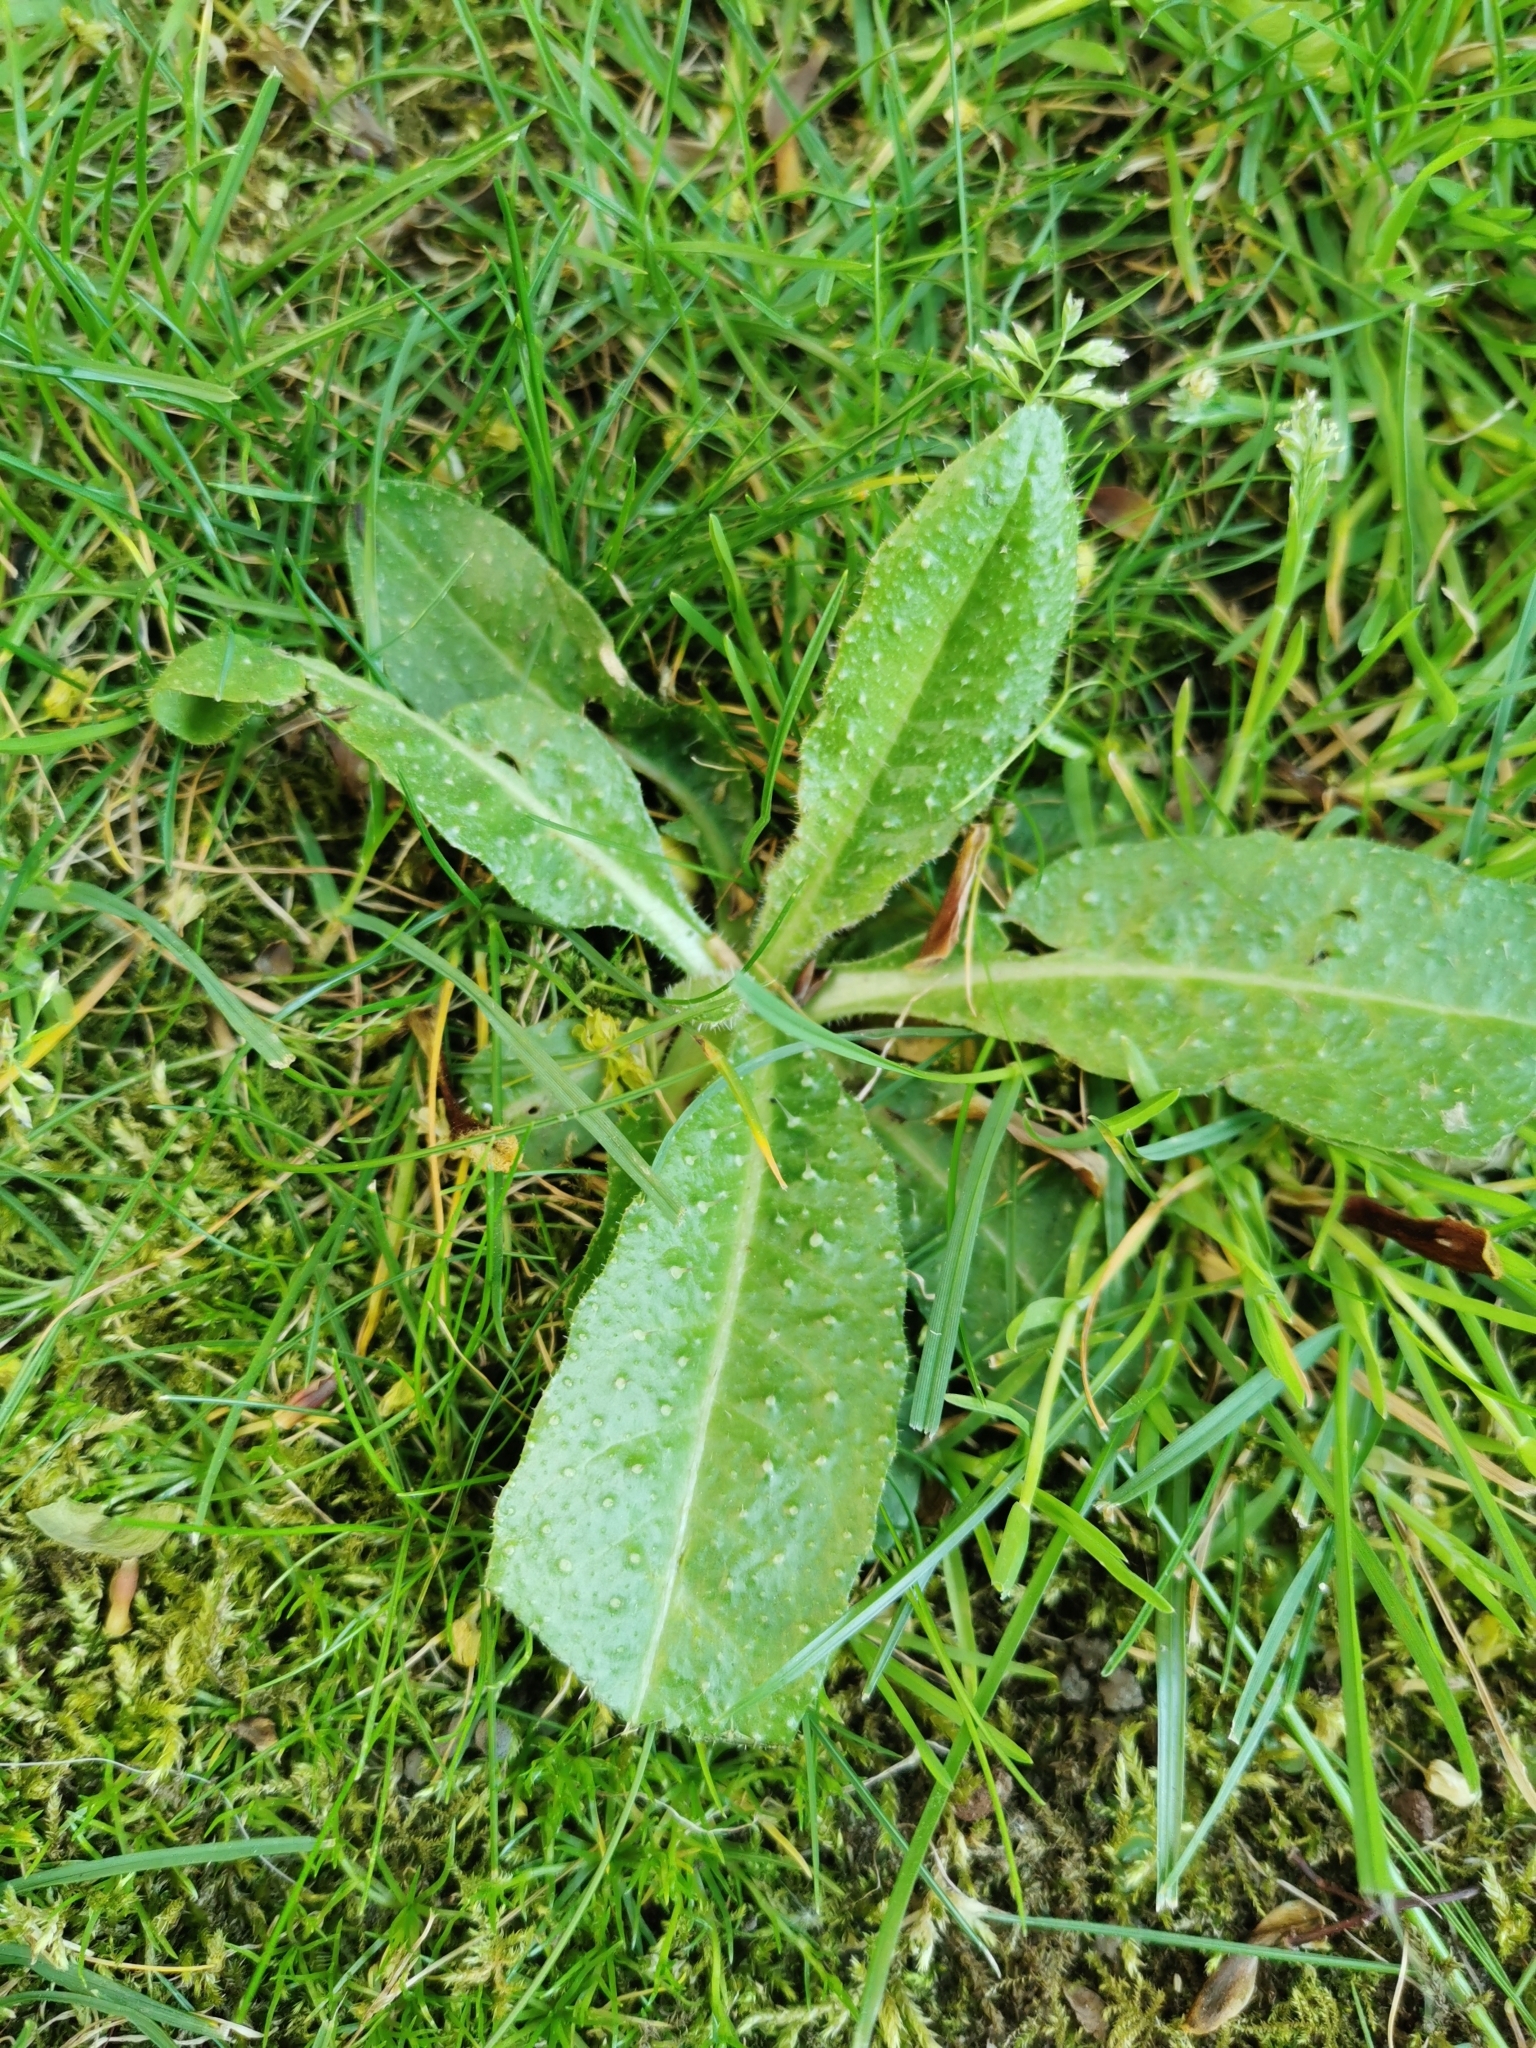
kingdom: Plantae
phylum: Tracheophyta
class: Magnoliopsida
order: Asterales
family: Asteraceae
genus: Helminthotheca
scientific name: Helminthotheca echioides
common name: Ox-tongue
